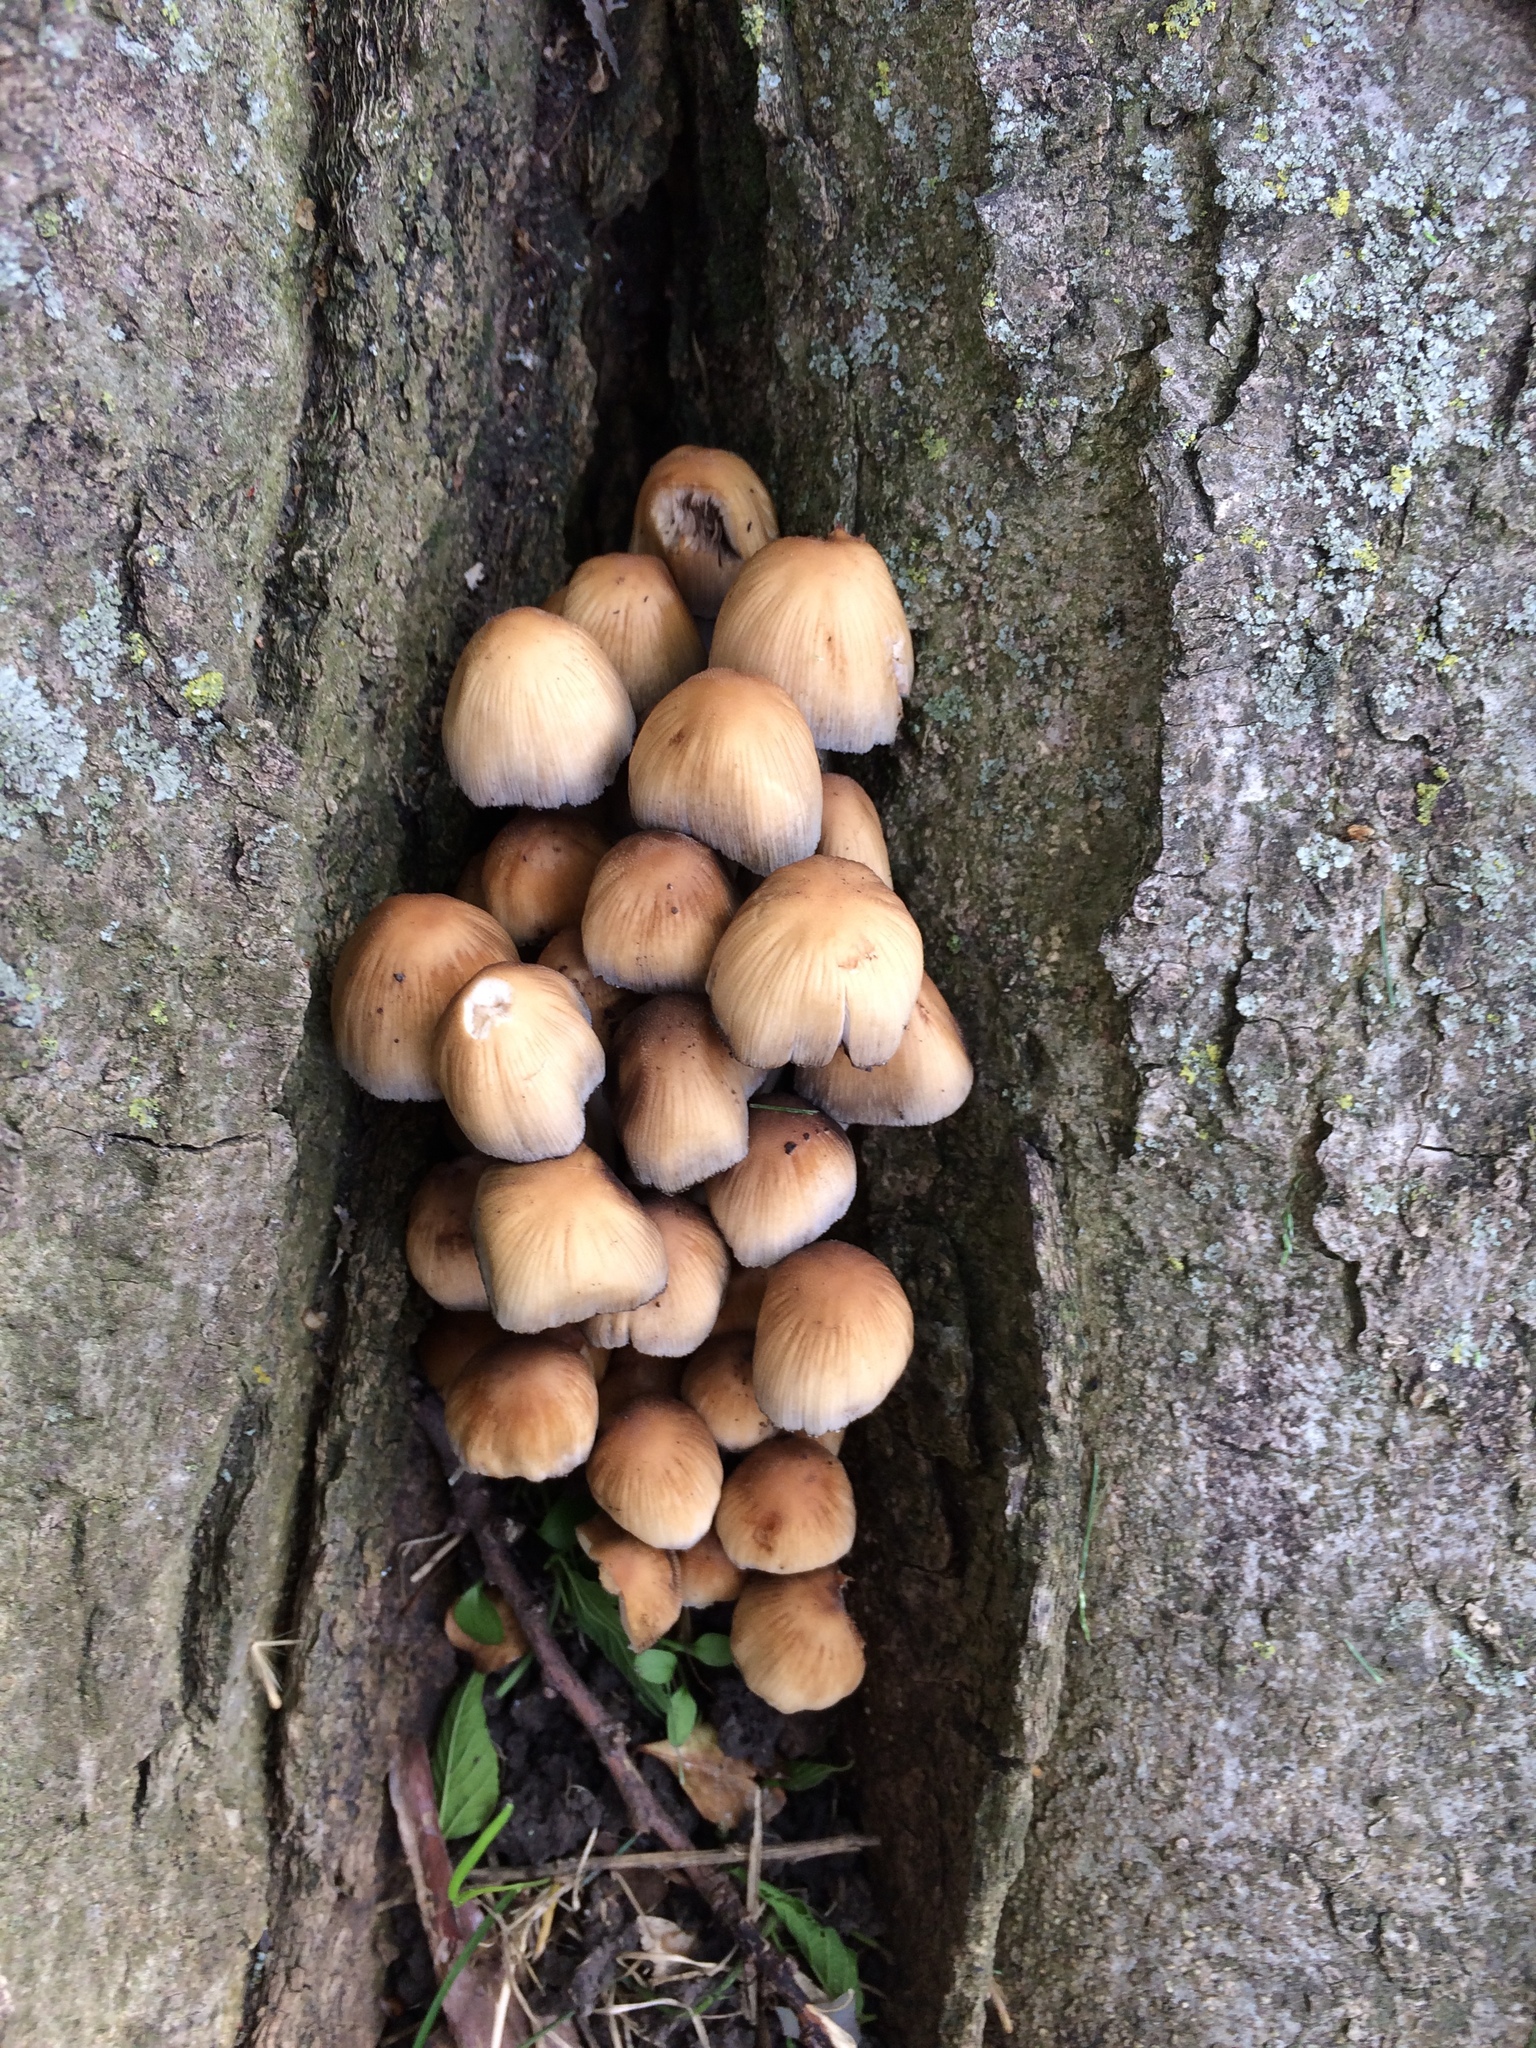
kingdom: Fungi
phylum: Basidiomycota
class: Agaricomycetes
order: Agaricales
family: Psathyrellaceae
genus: Coprinellus
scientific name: Coprinellus micaceus
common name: Glistening ink-cap
